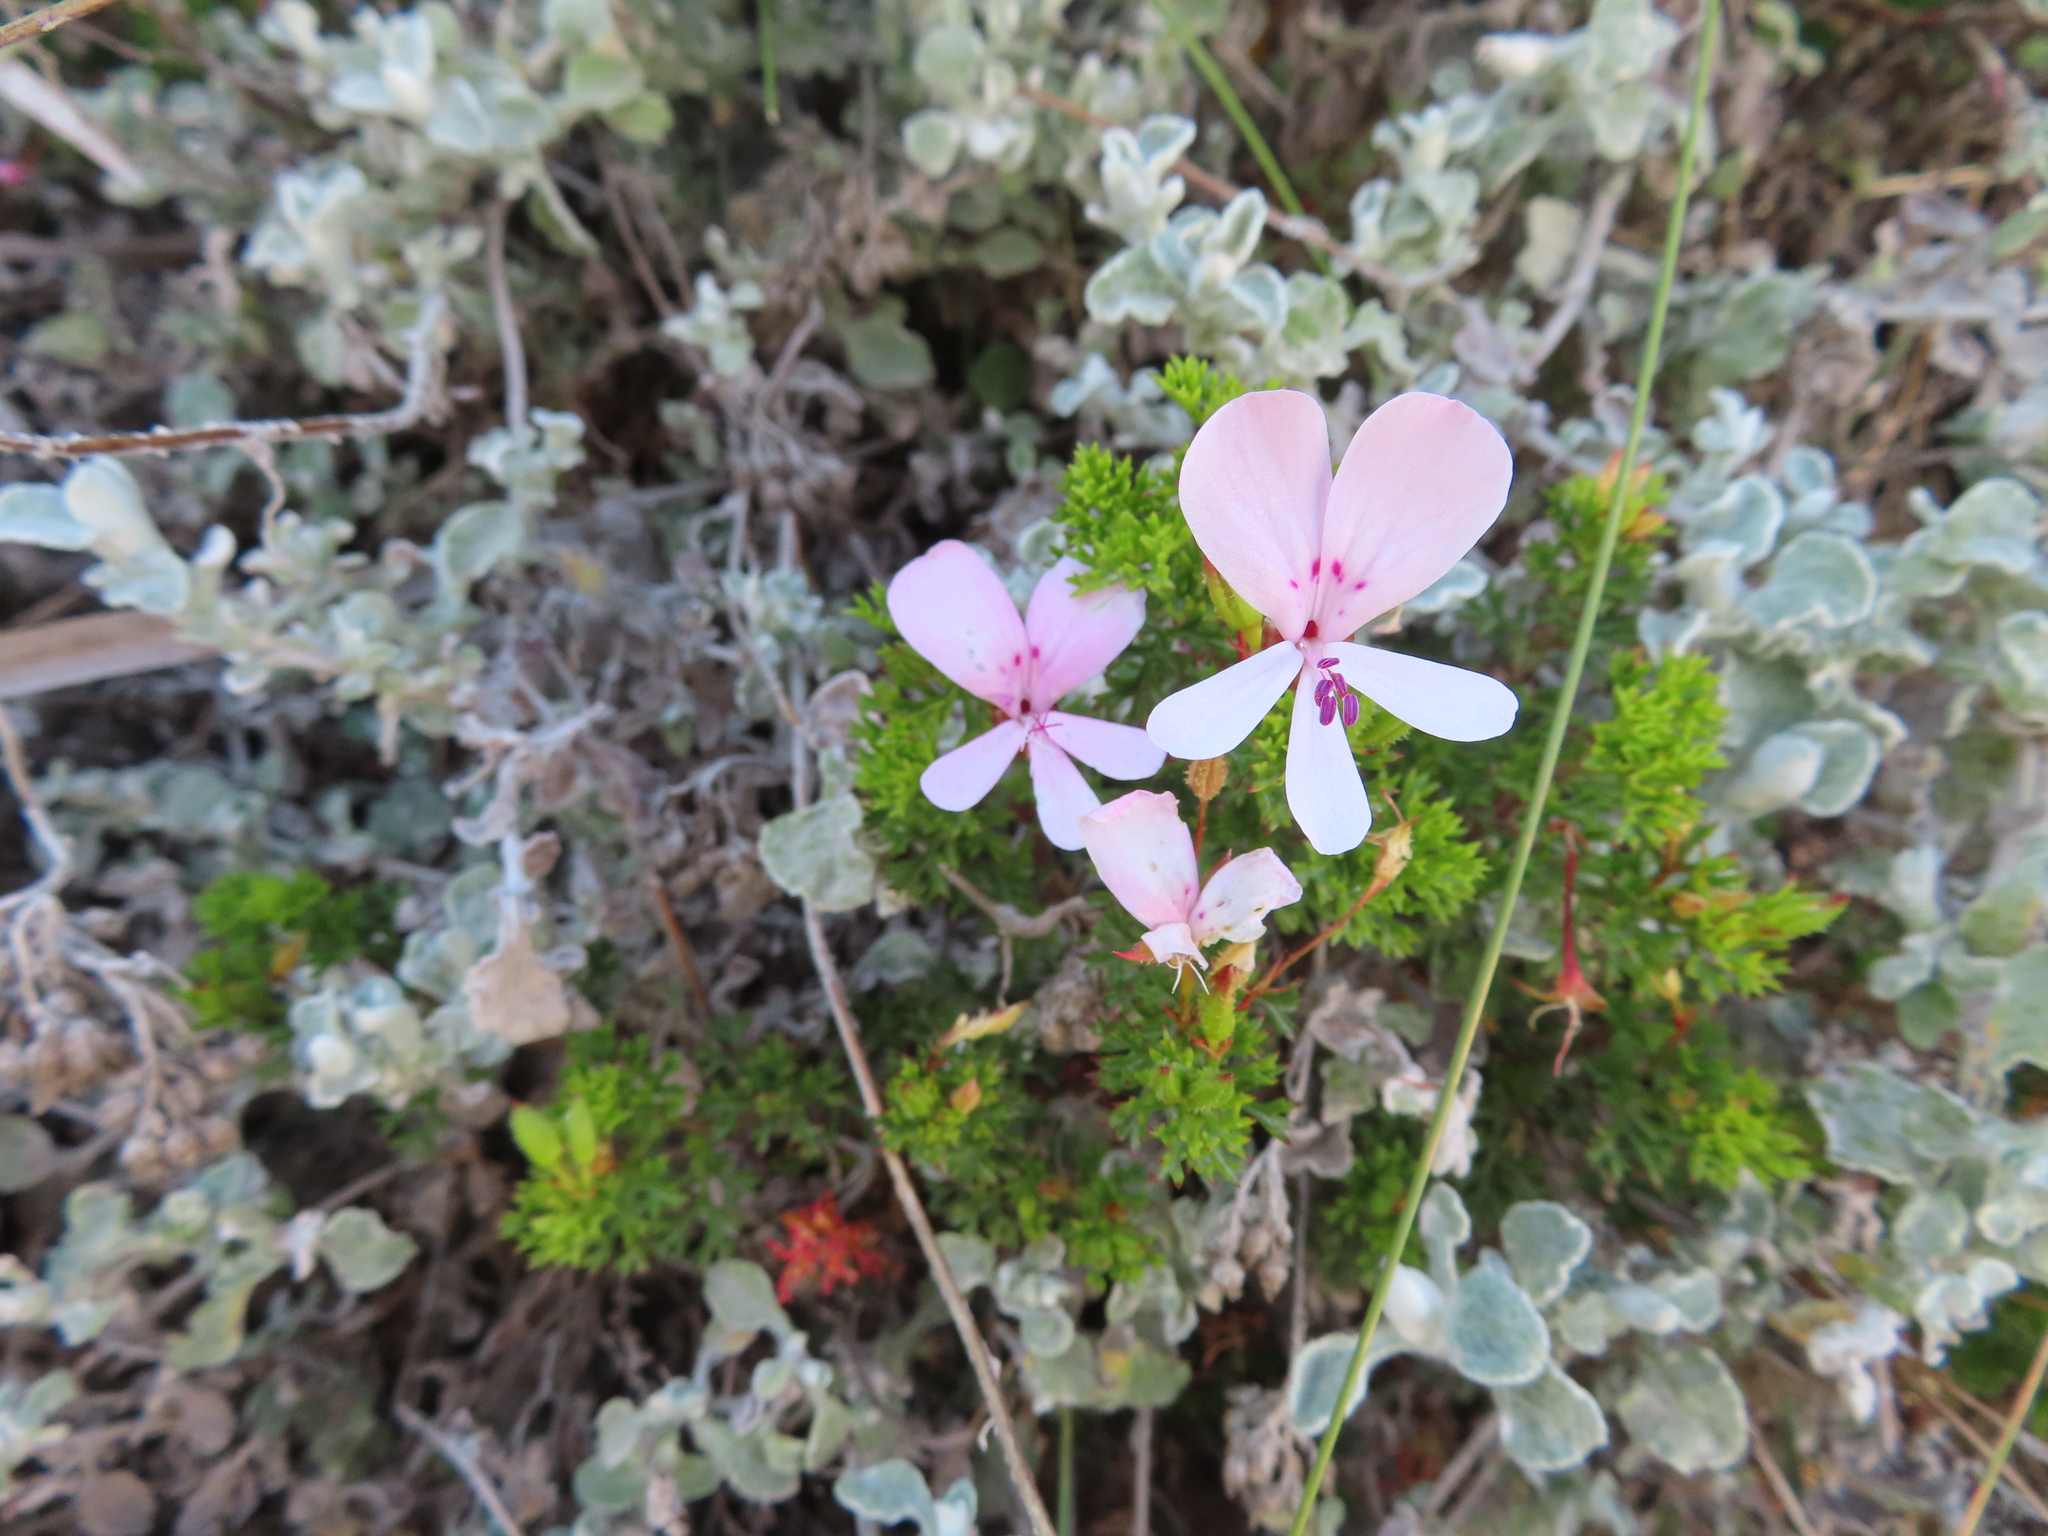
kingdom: Plantae
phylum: Tracheophyta
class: Magnoliopsida
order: Geraniales
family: Geraniaceae
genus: Pelargonium
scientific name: Pelargonium fruticosum
